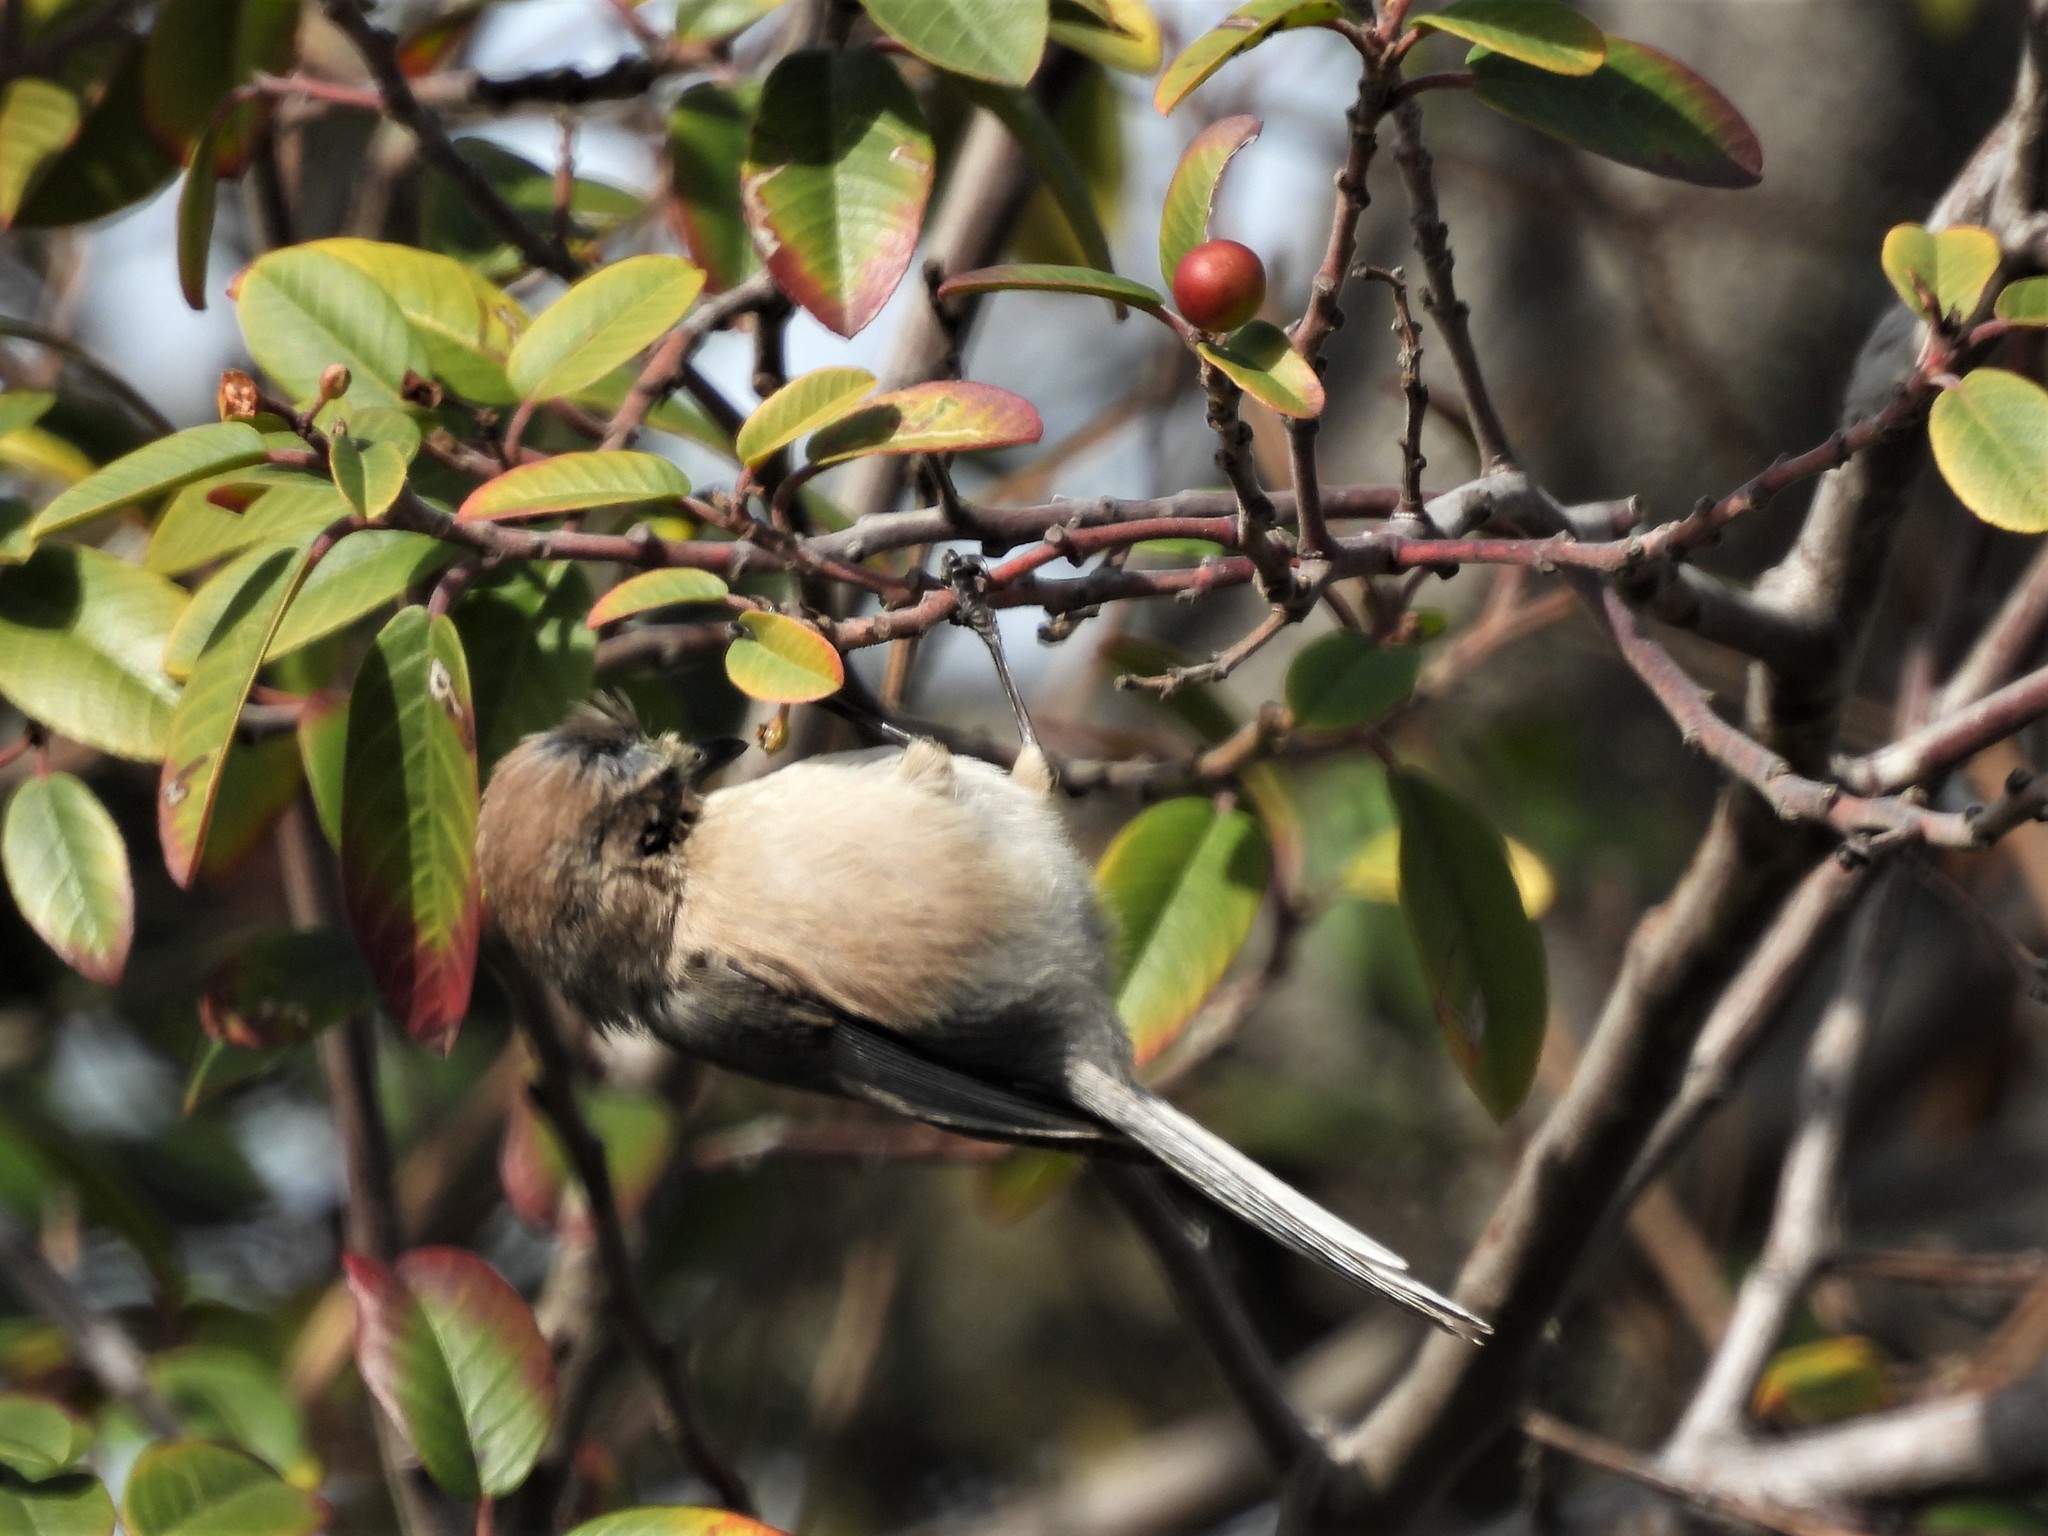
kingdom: Animalia
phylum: Chordata
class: Aves
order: Passeriformes
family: Aegithalidae
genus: Psaltriparus
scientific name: Psaltriparus minimus
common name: American bushtit
